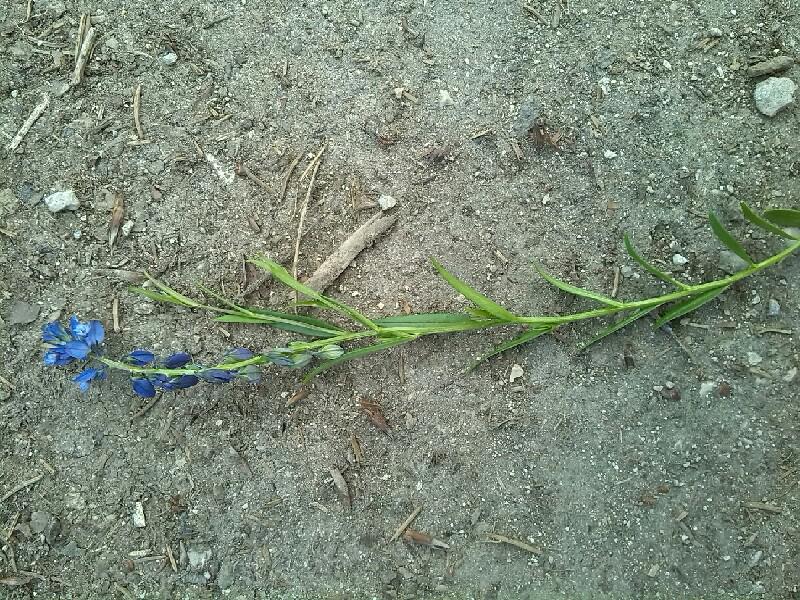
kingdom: Plantae
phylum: Tracheophyta
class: Magnoliopsida
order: Fabales
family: Polygalaceae
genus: Polygala
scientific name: Polygala vulgaris
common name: Common milkwort
